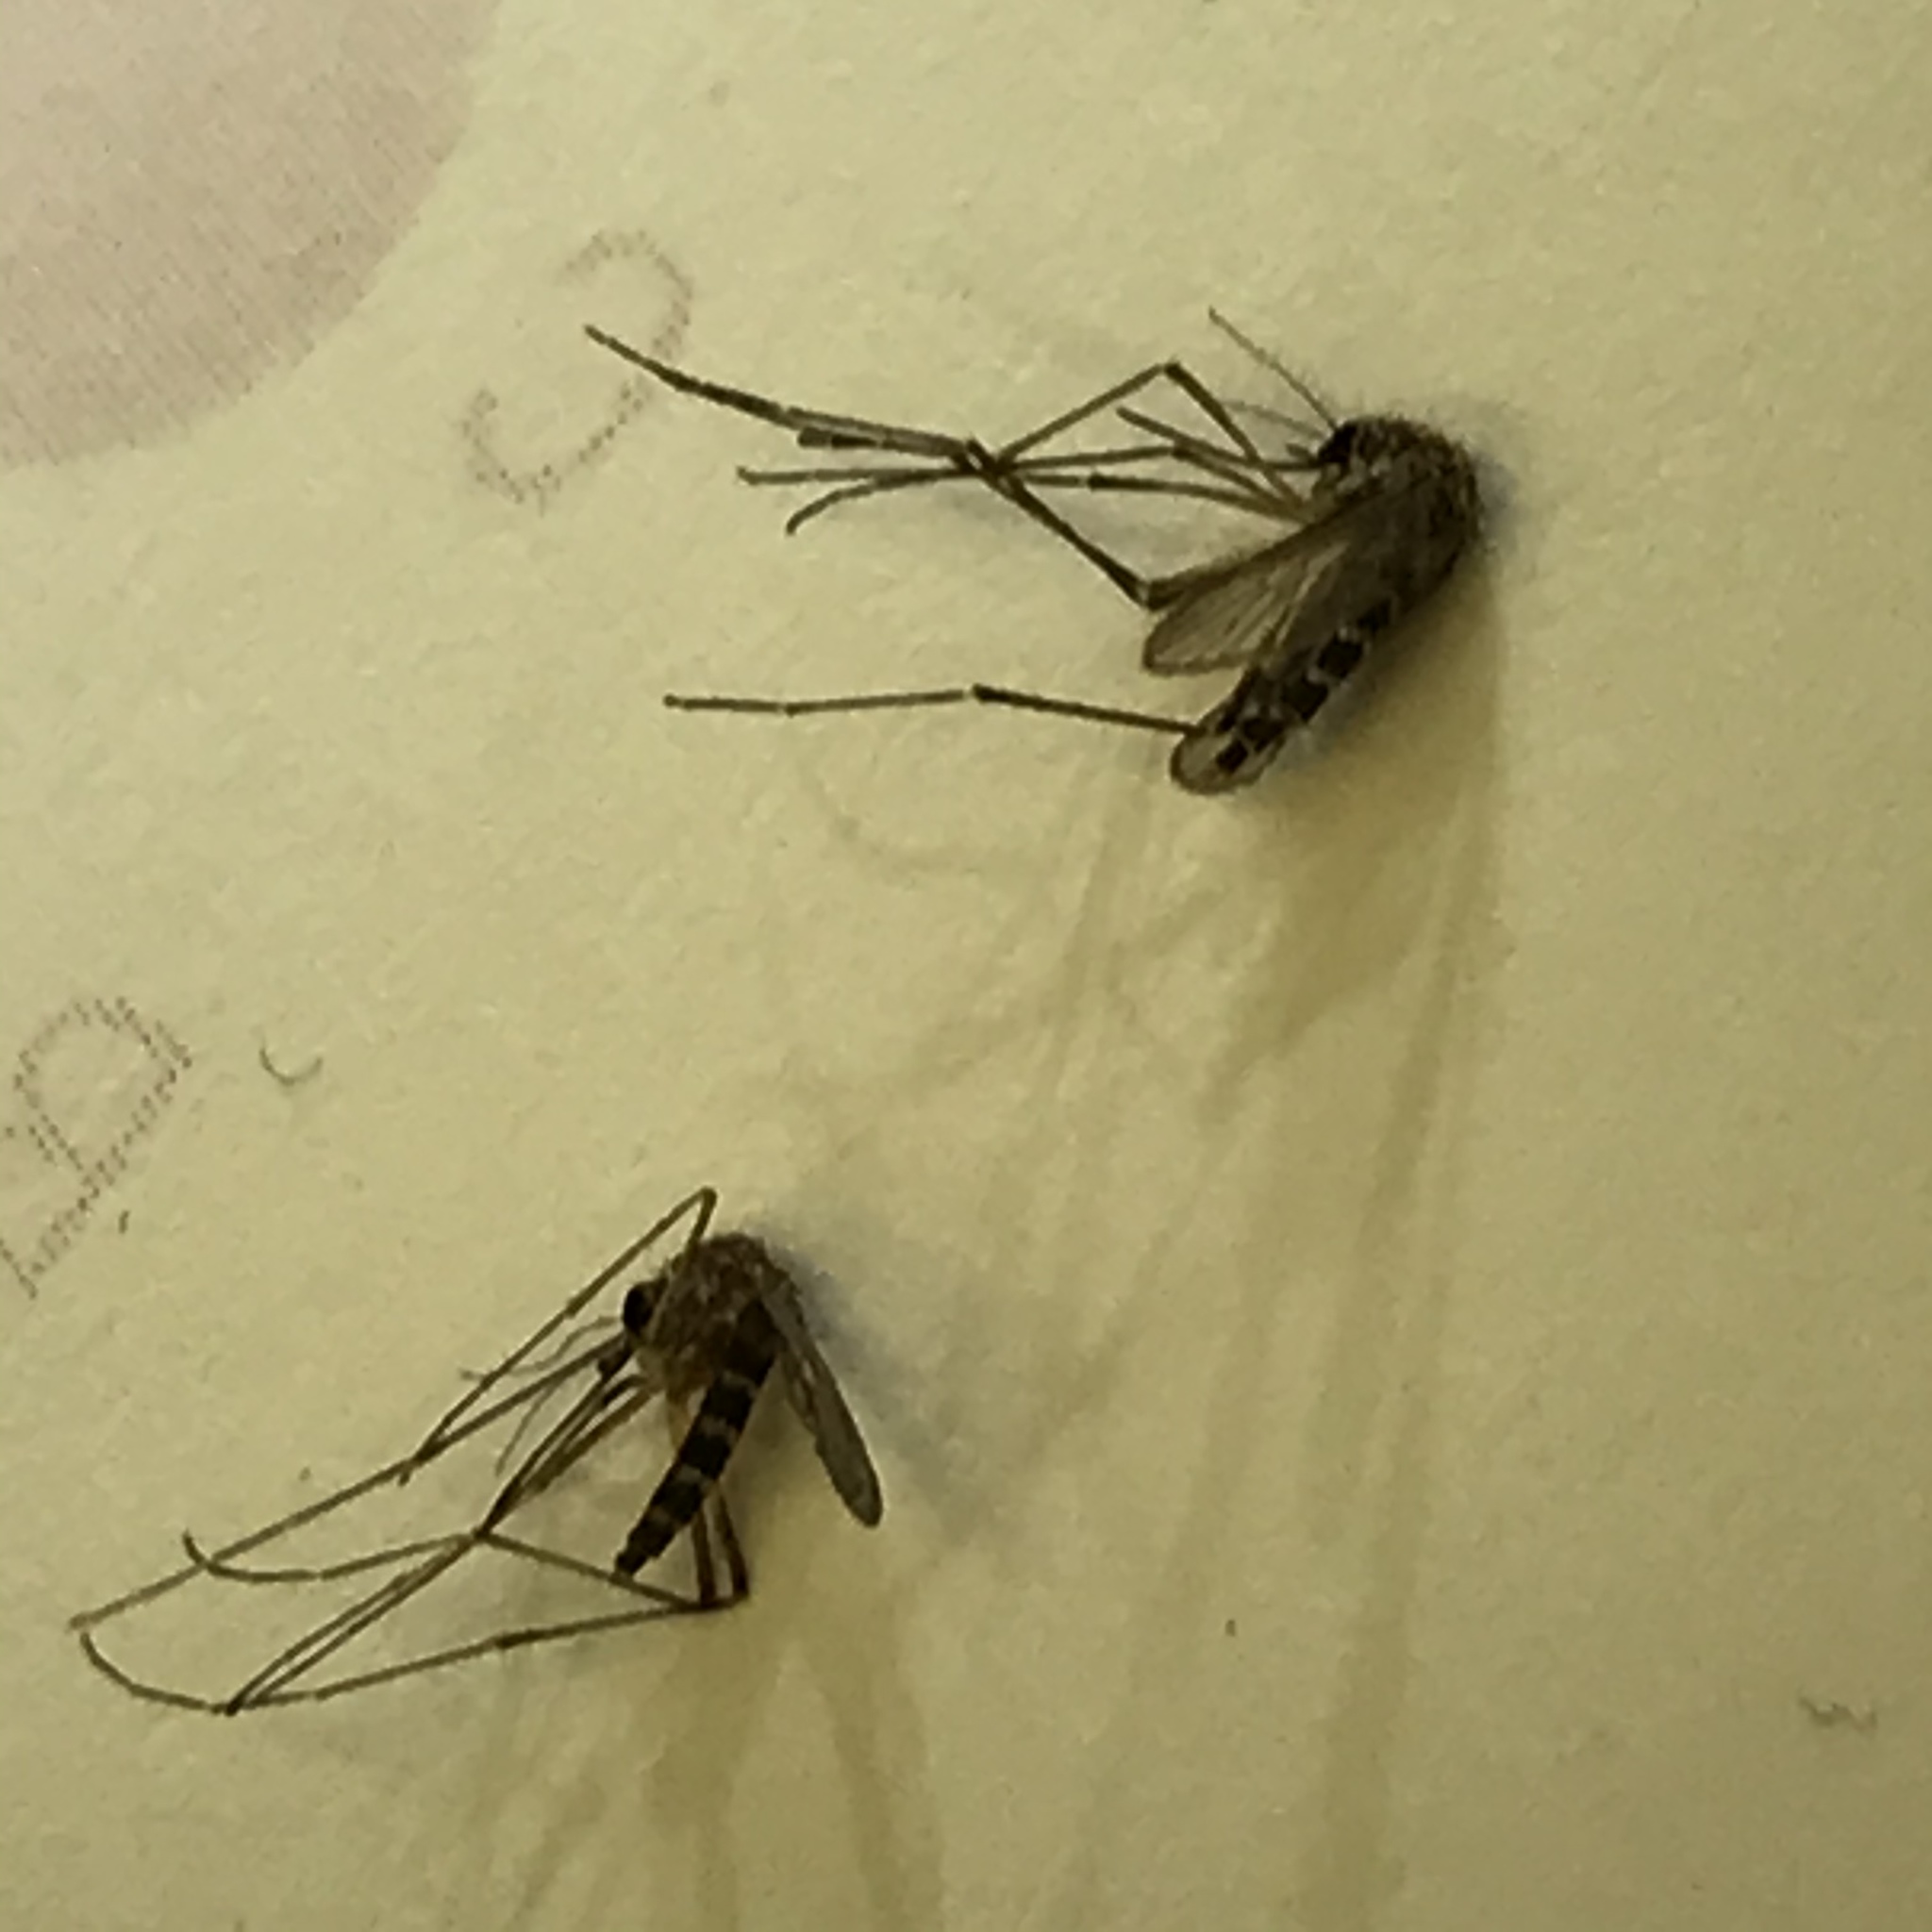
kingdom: Animalia
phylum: Arthropoda
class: Insecta
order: Diptera
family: Culicidae
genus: Aedes
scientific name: Aedes vexans
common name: Inland floodwater mosquito
